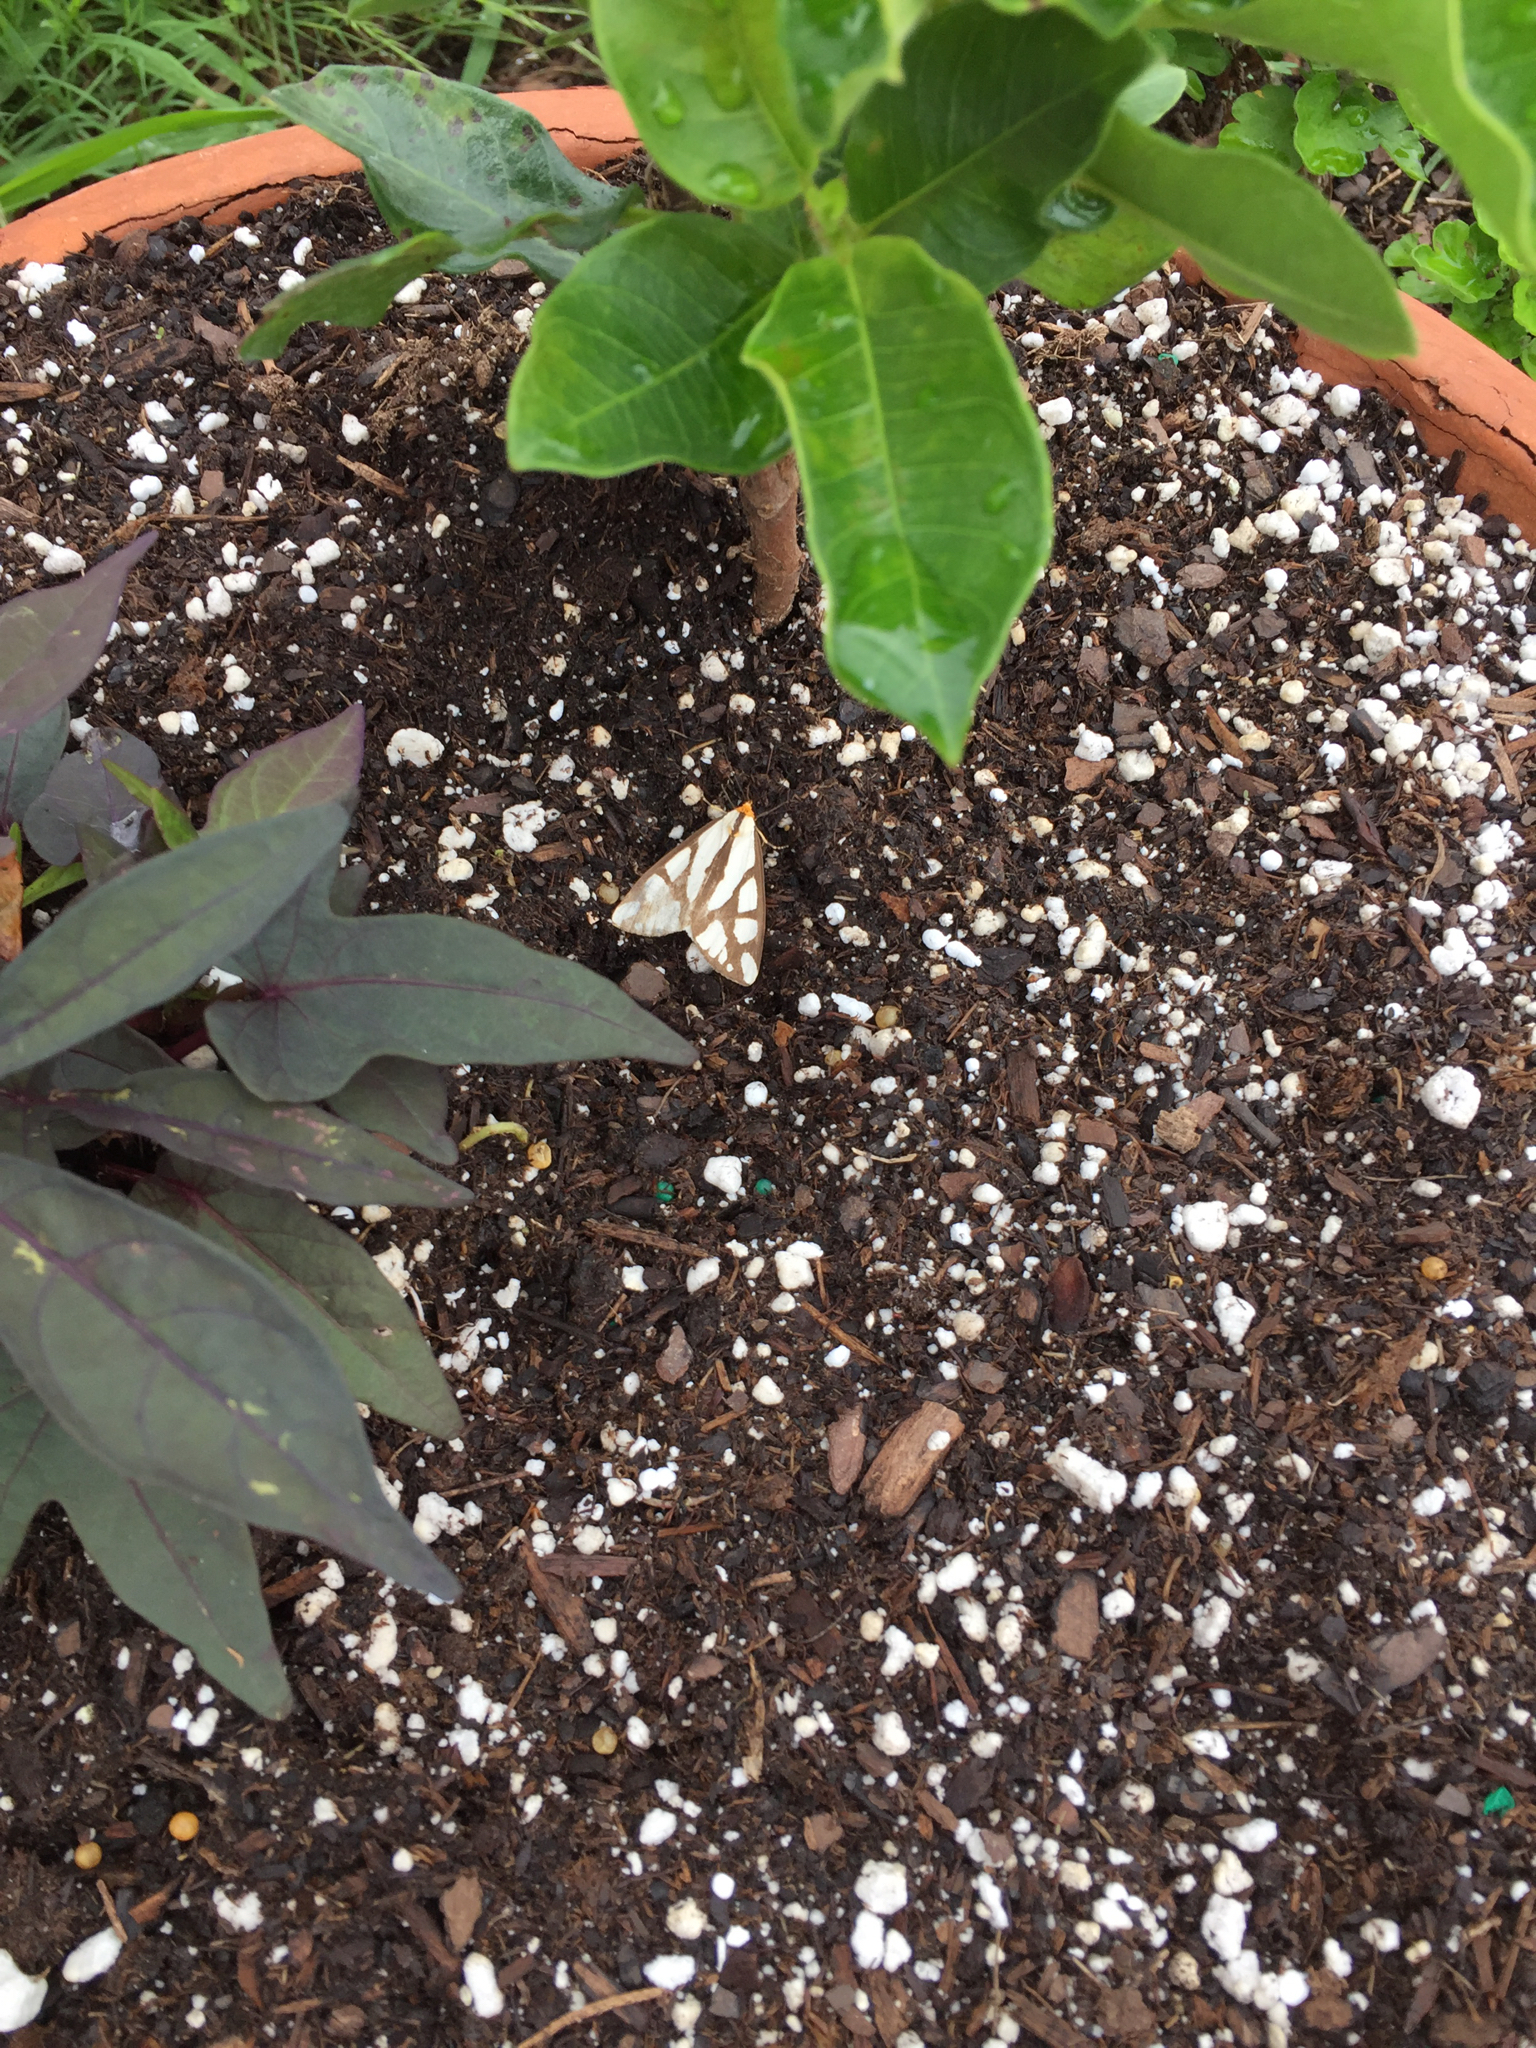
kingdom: Animalia
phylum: Arthropoda
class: Insecta
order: Lepidoptera
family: Erebidae
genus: Haploa
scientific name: Haploa reversa
